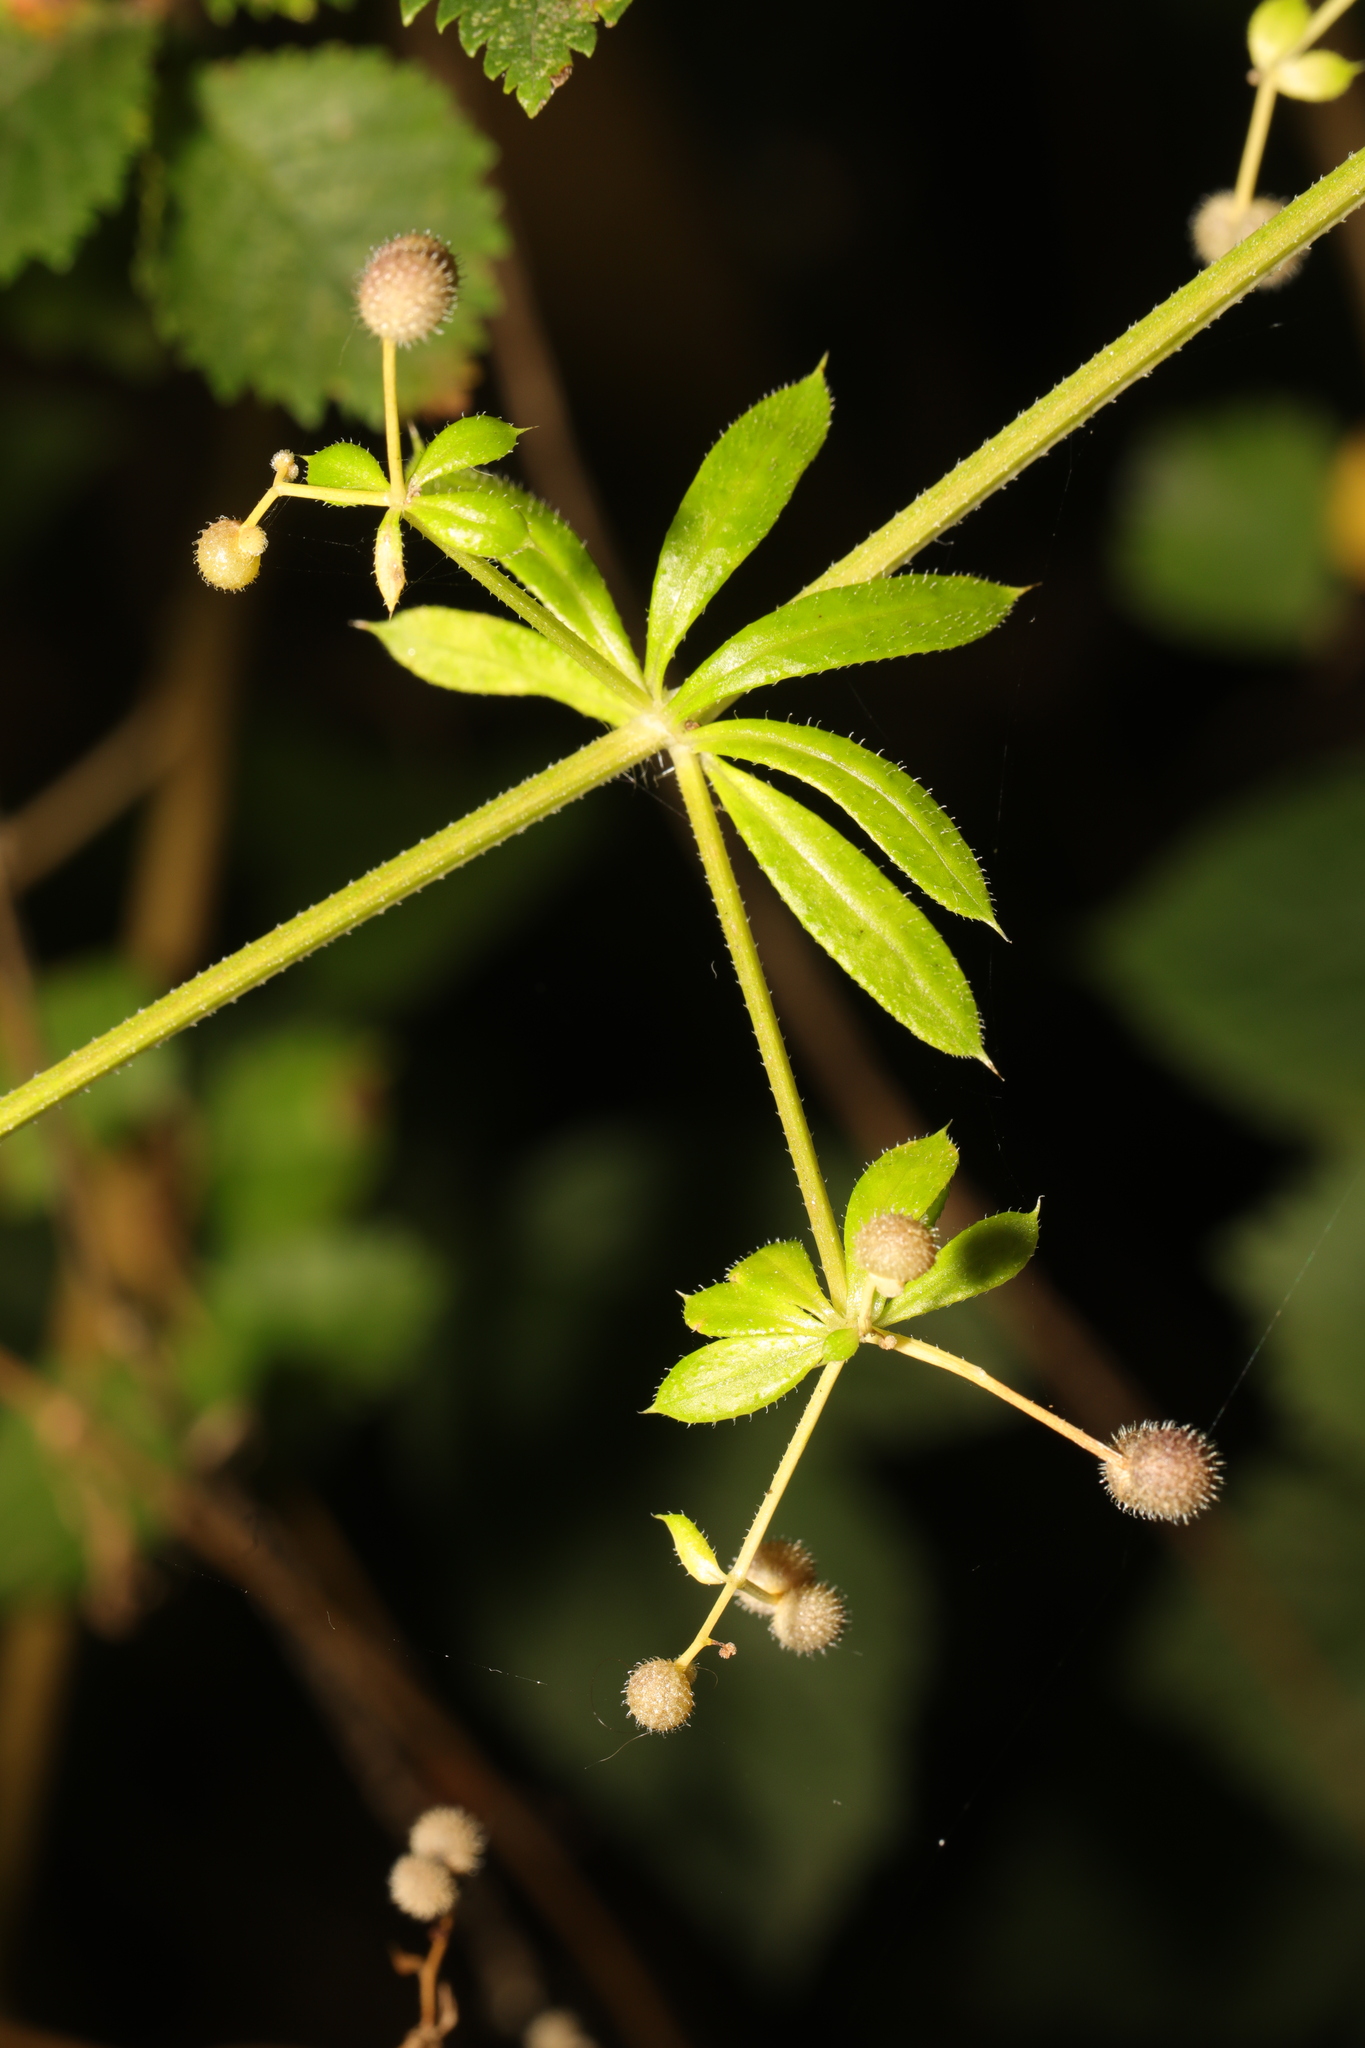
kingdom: Plantae
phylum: Tracheophyta
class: Magnoliopsida
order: Gentianales
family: Rubiaceae
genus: Galium
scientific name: Galium aparine
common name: Cleavers
